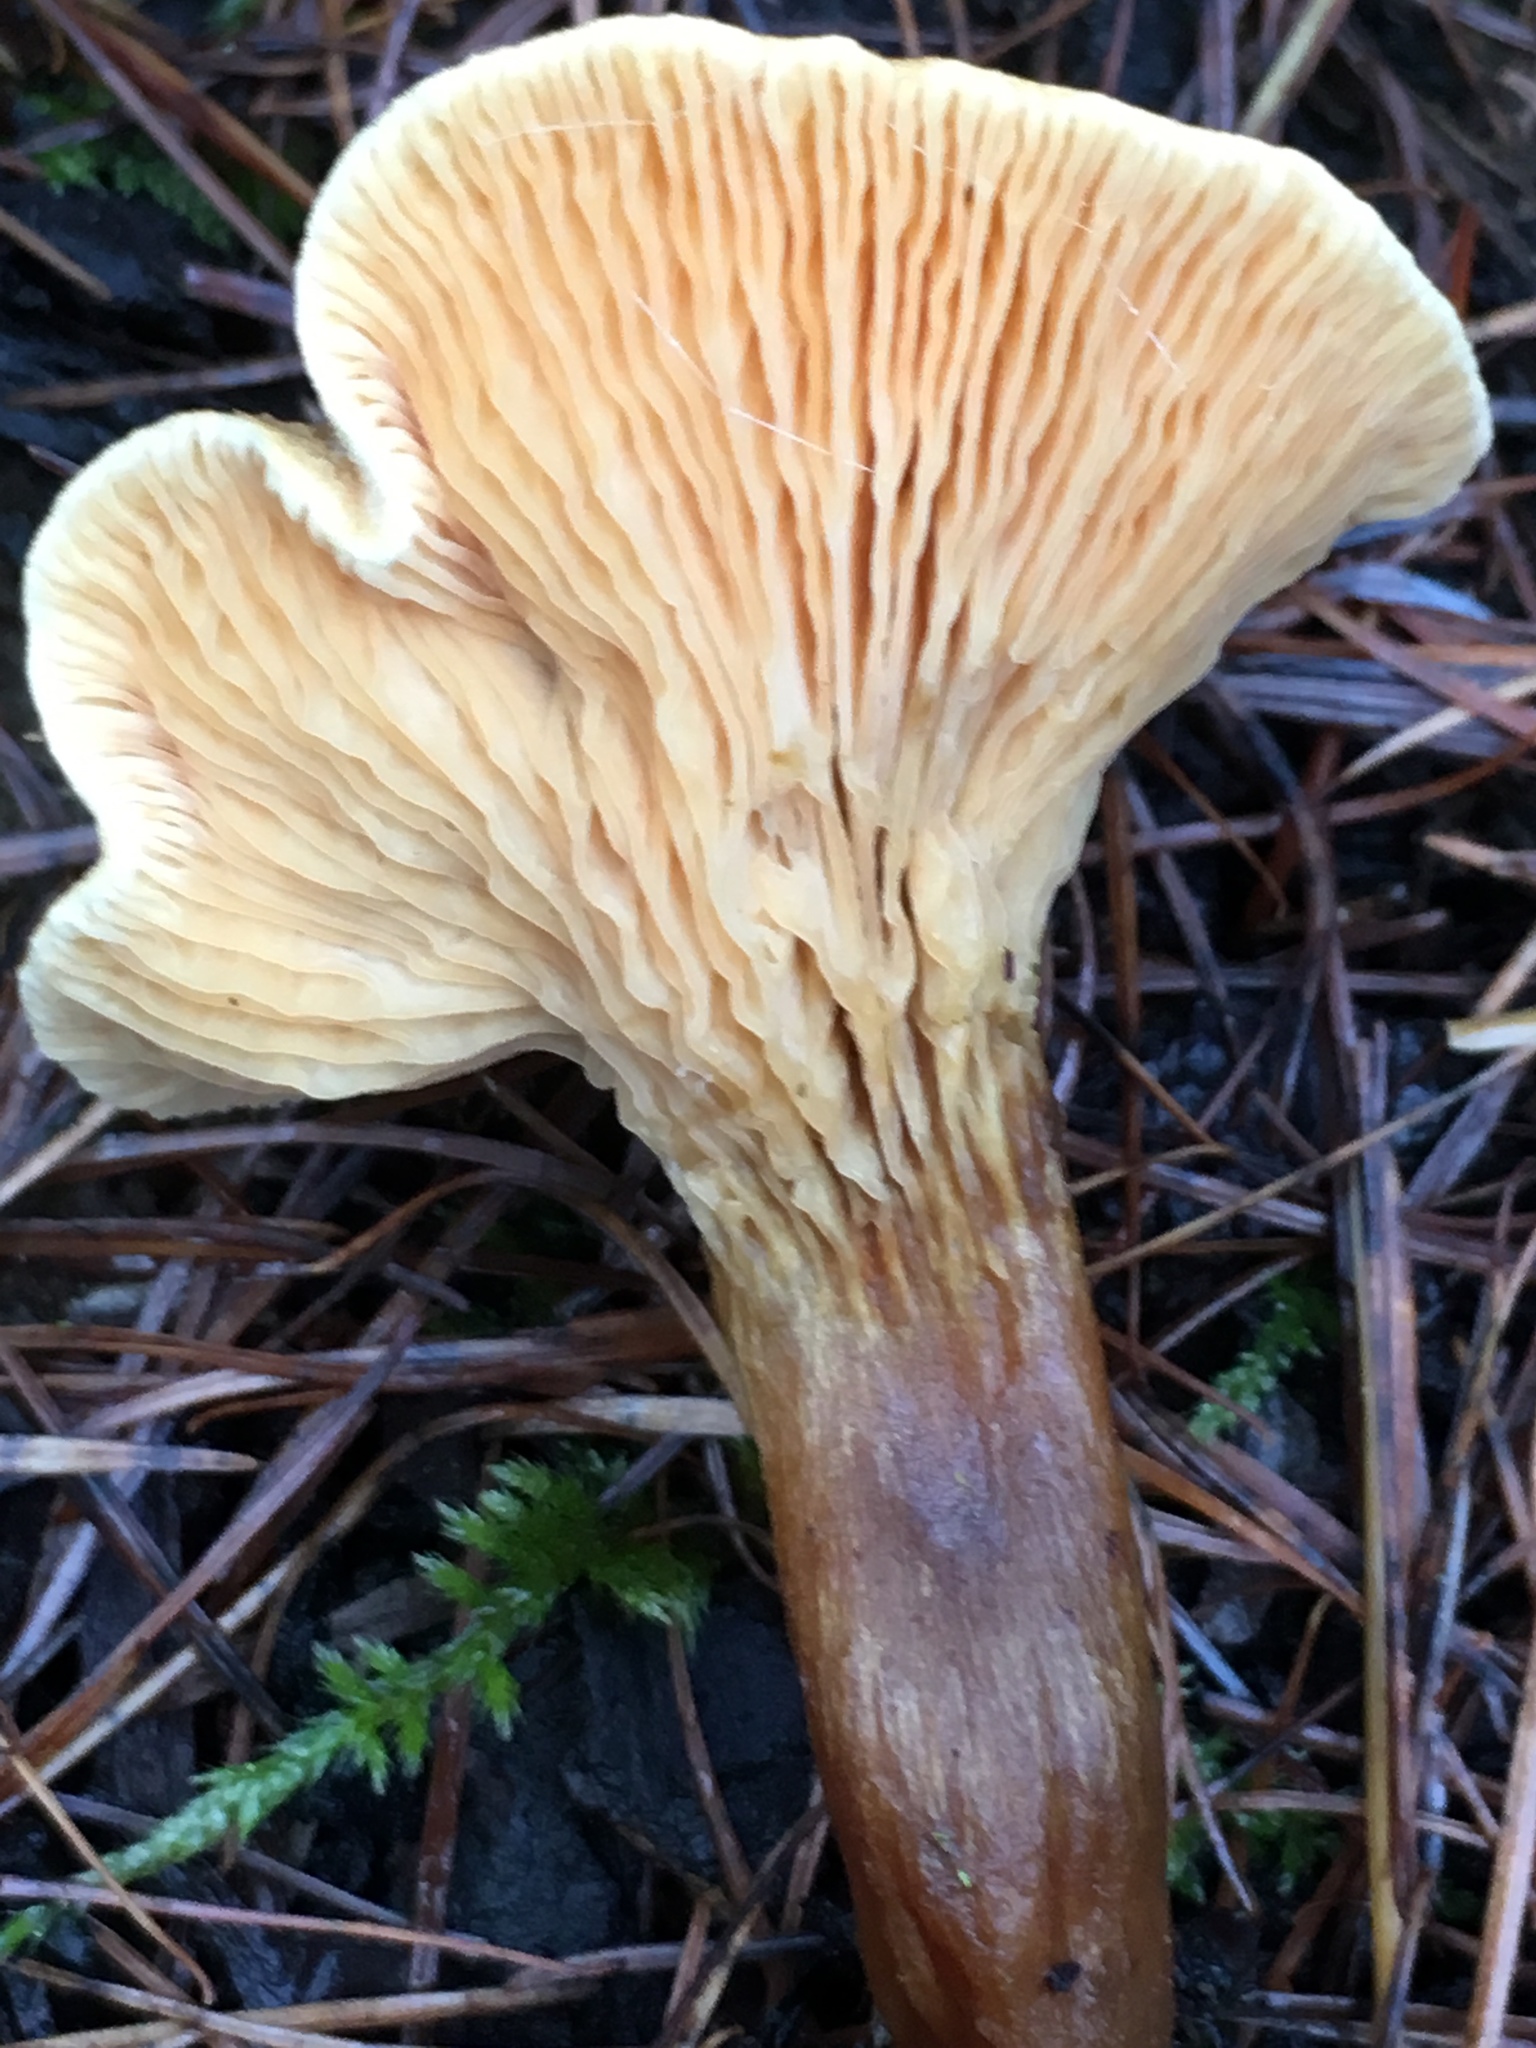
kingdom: Fungi
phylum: Basidiomycota
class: Agaricomycetes
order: Boletales
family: Hygrophoropsidaceae
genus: Hygrophoropsis
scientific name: Hygrophoropsis aurantiaca
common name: False chanterelle
